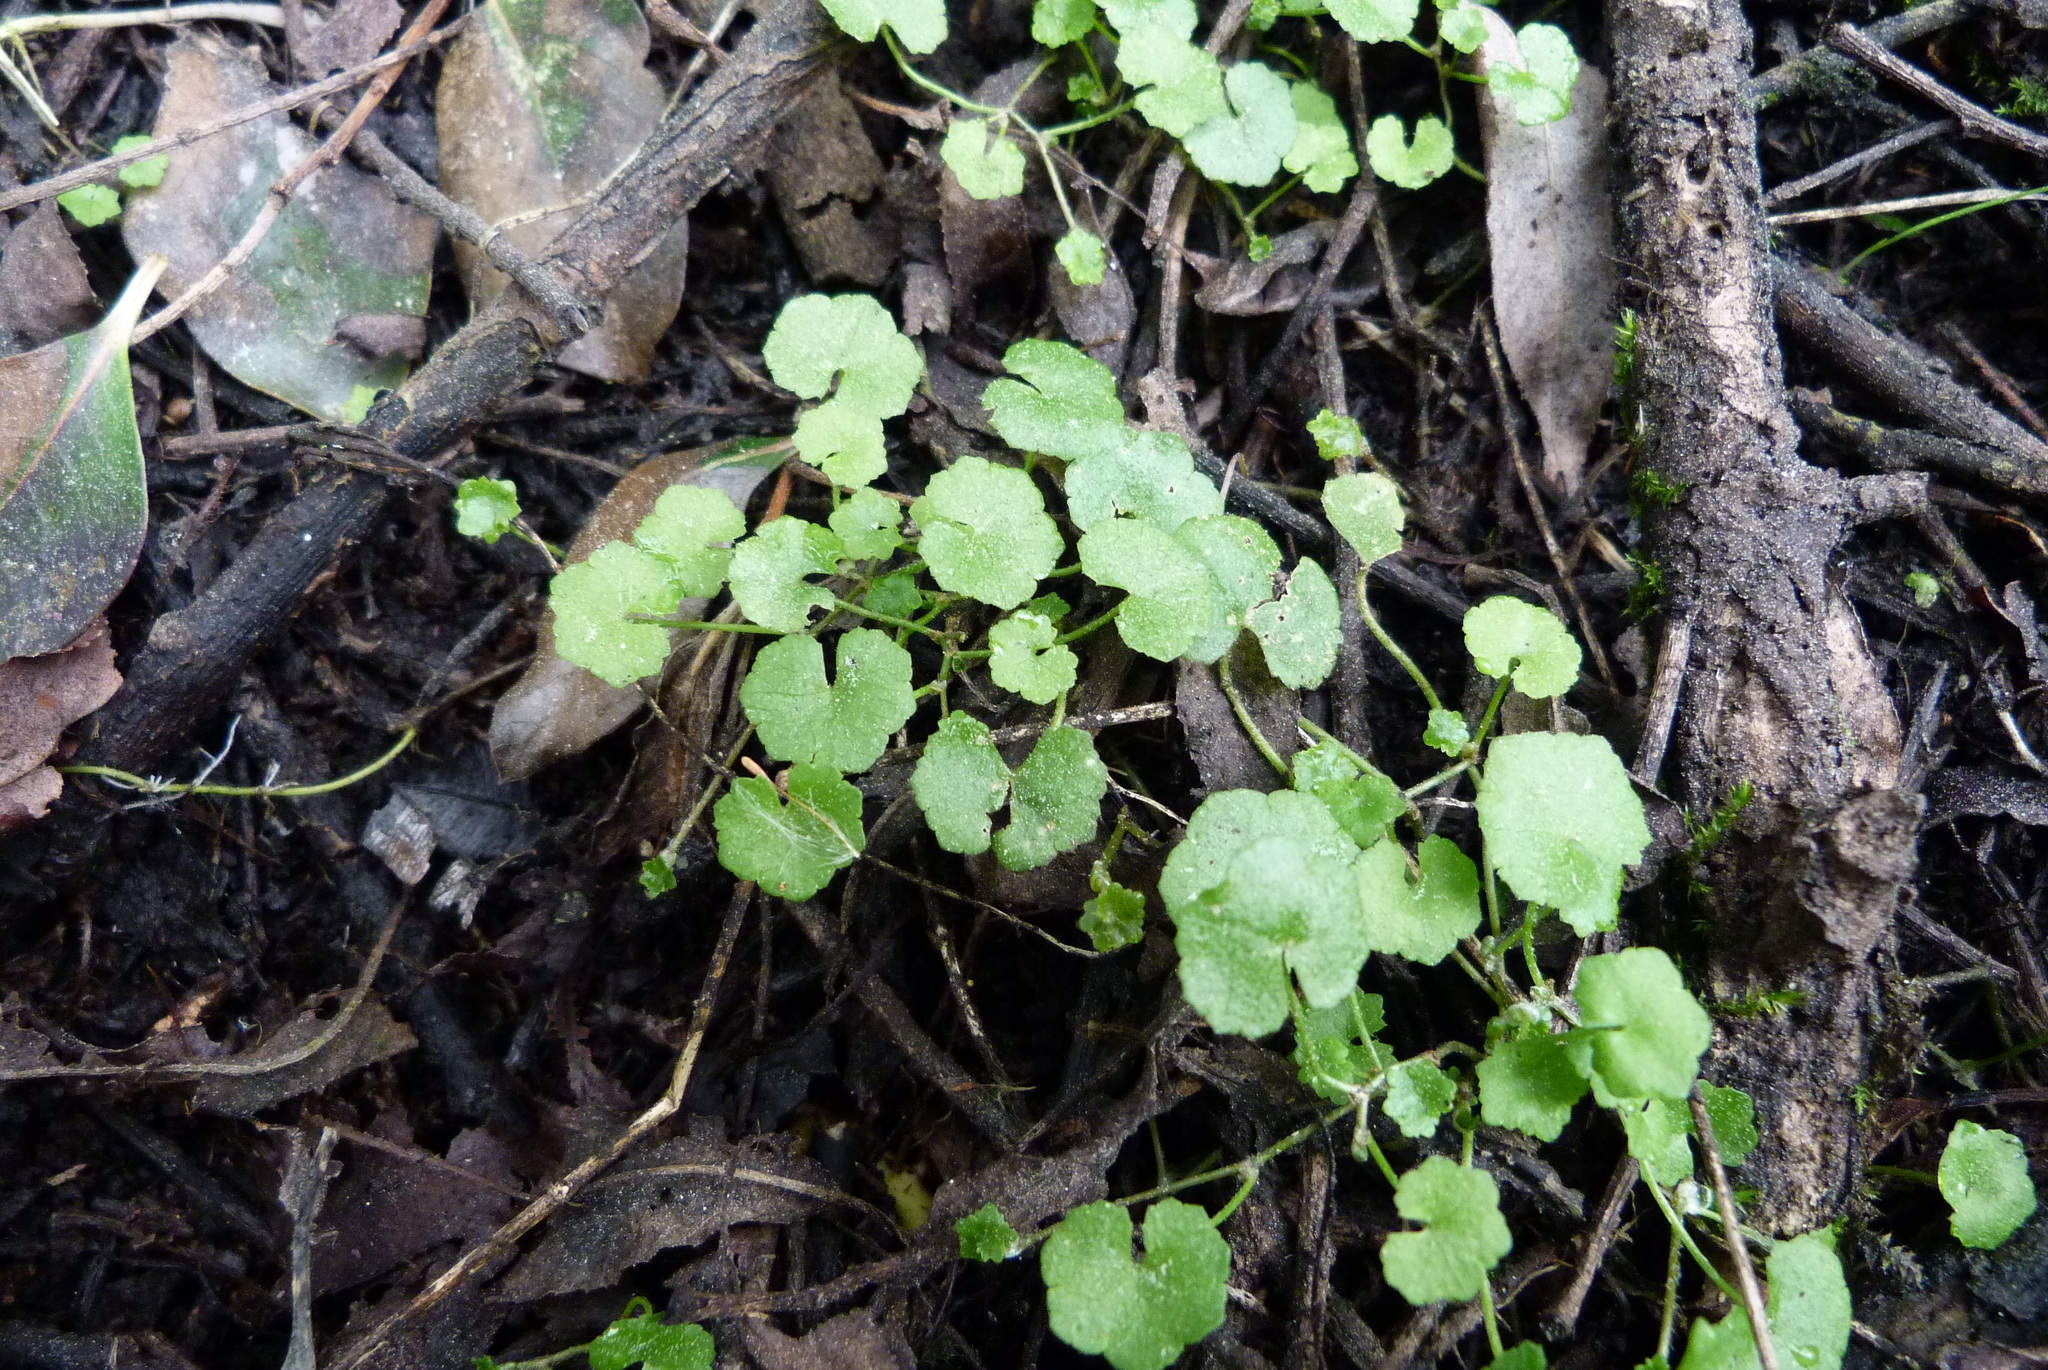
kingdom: Plantae
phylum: Tracheophyta
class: Magnoliopsida
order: Apiales
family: Araliaceae
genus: Hydrocotyle
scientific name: Hydrocotyle heteromeria
